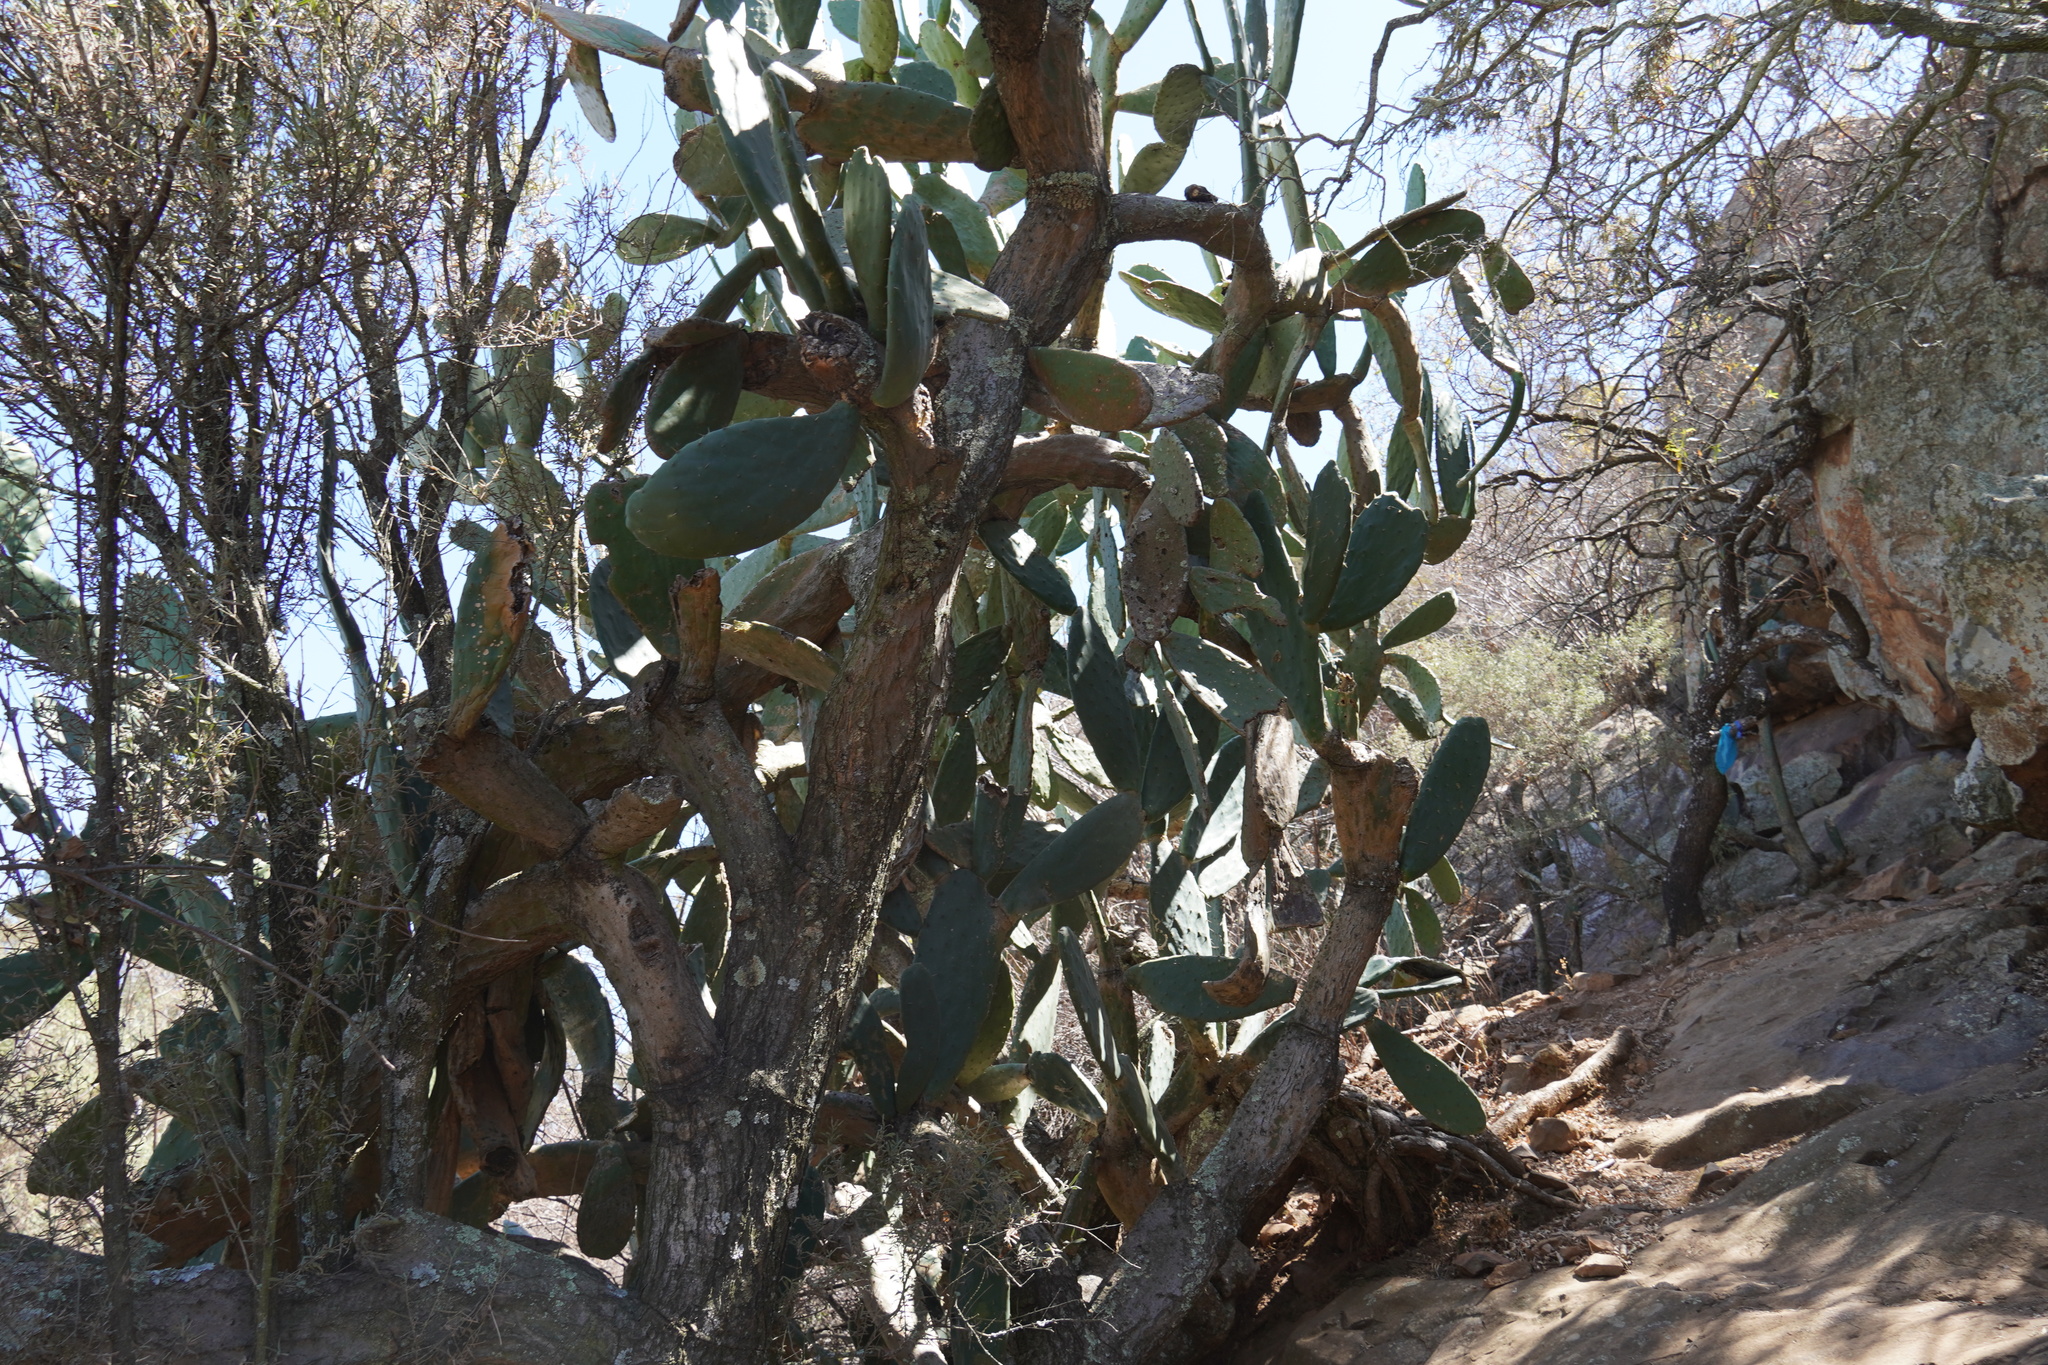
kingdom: Plantae
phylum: Tracheophyta
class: Magnoliopsida
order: Caryophyllales
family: Cactaceae
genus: Opuntia
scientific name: Opuntia ficus-indica
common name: Barbary fig
